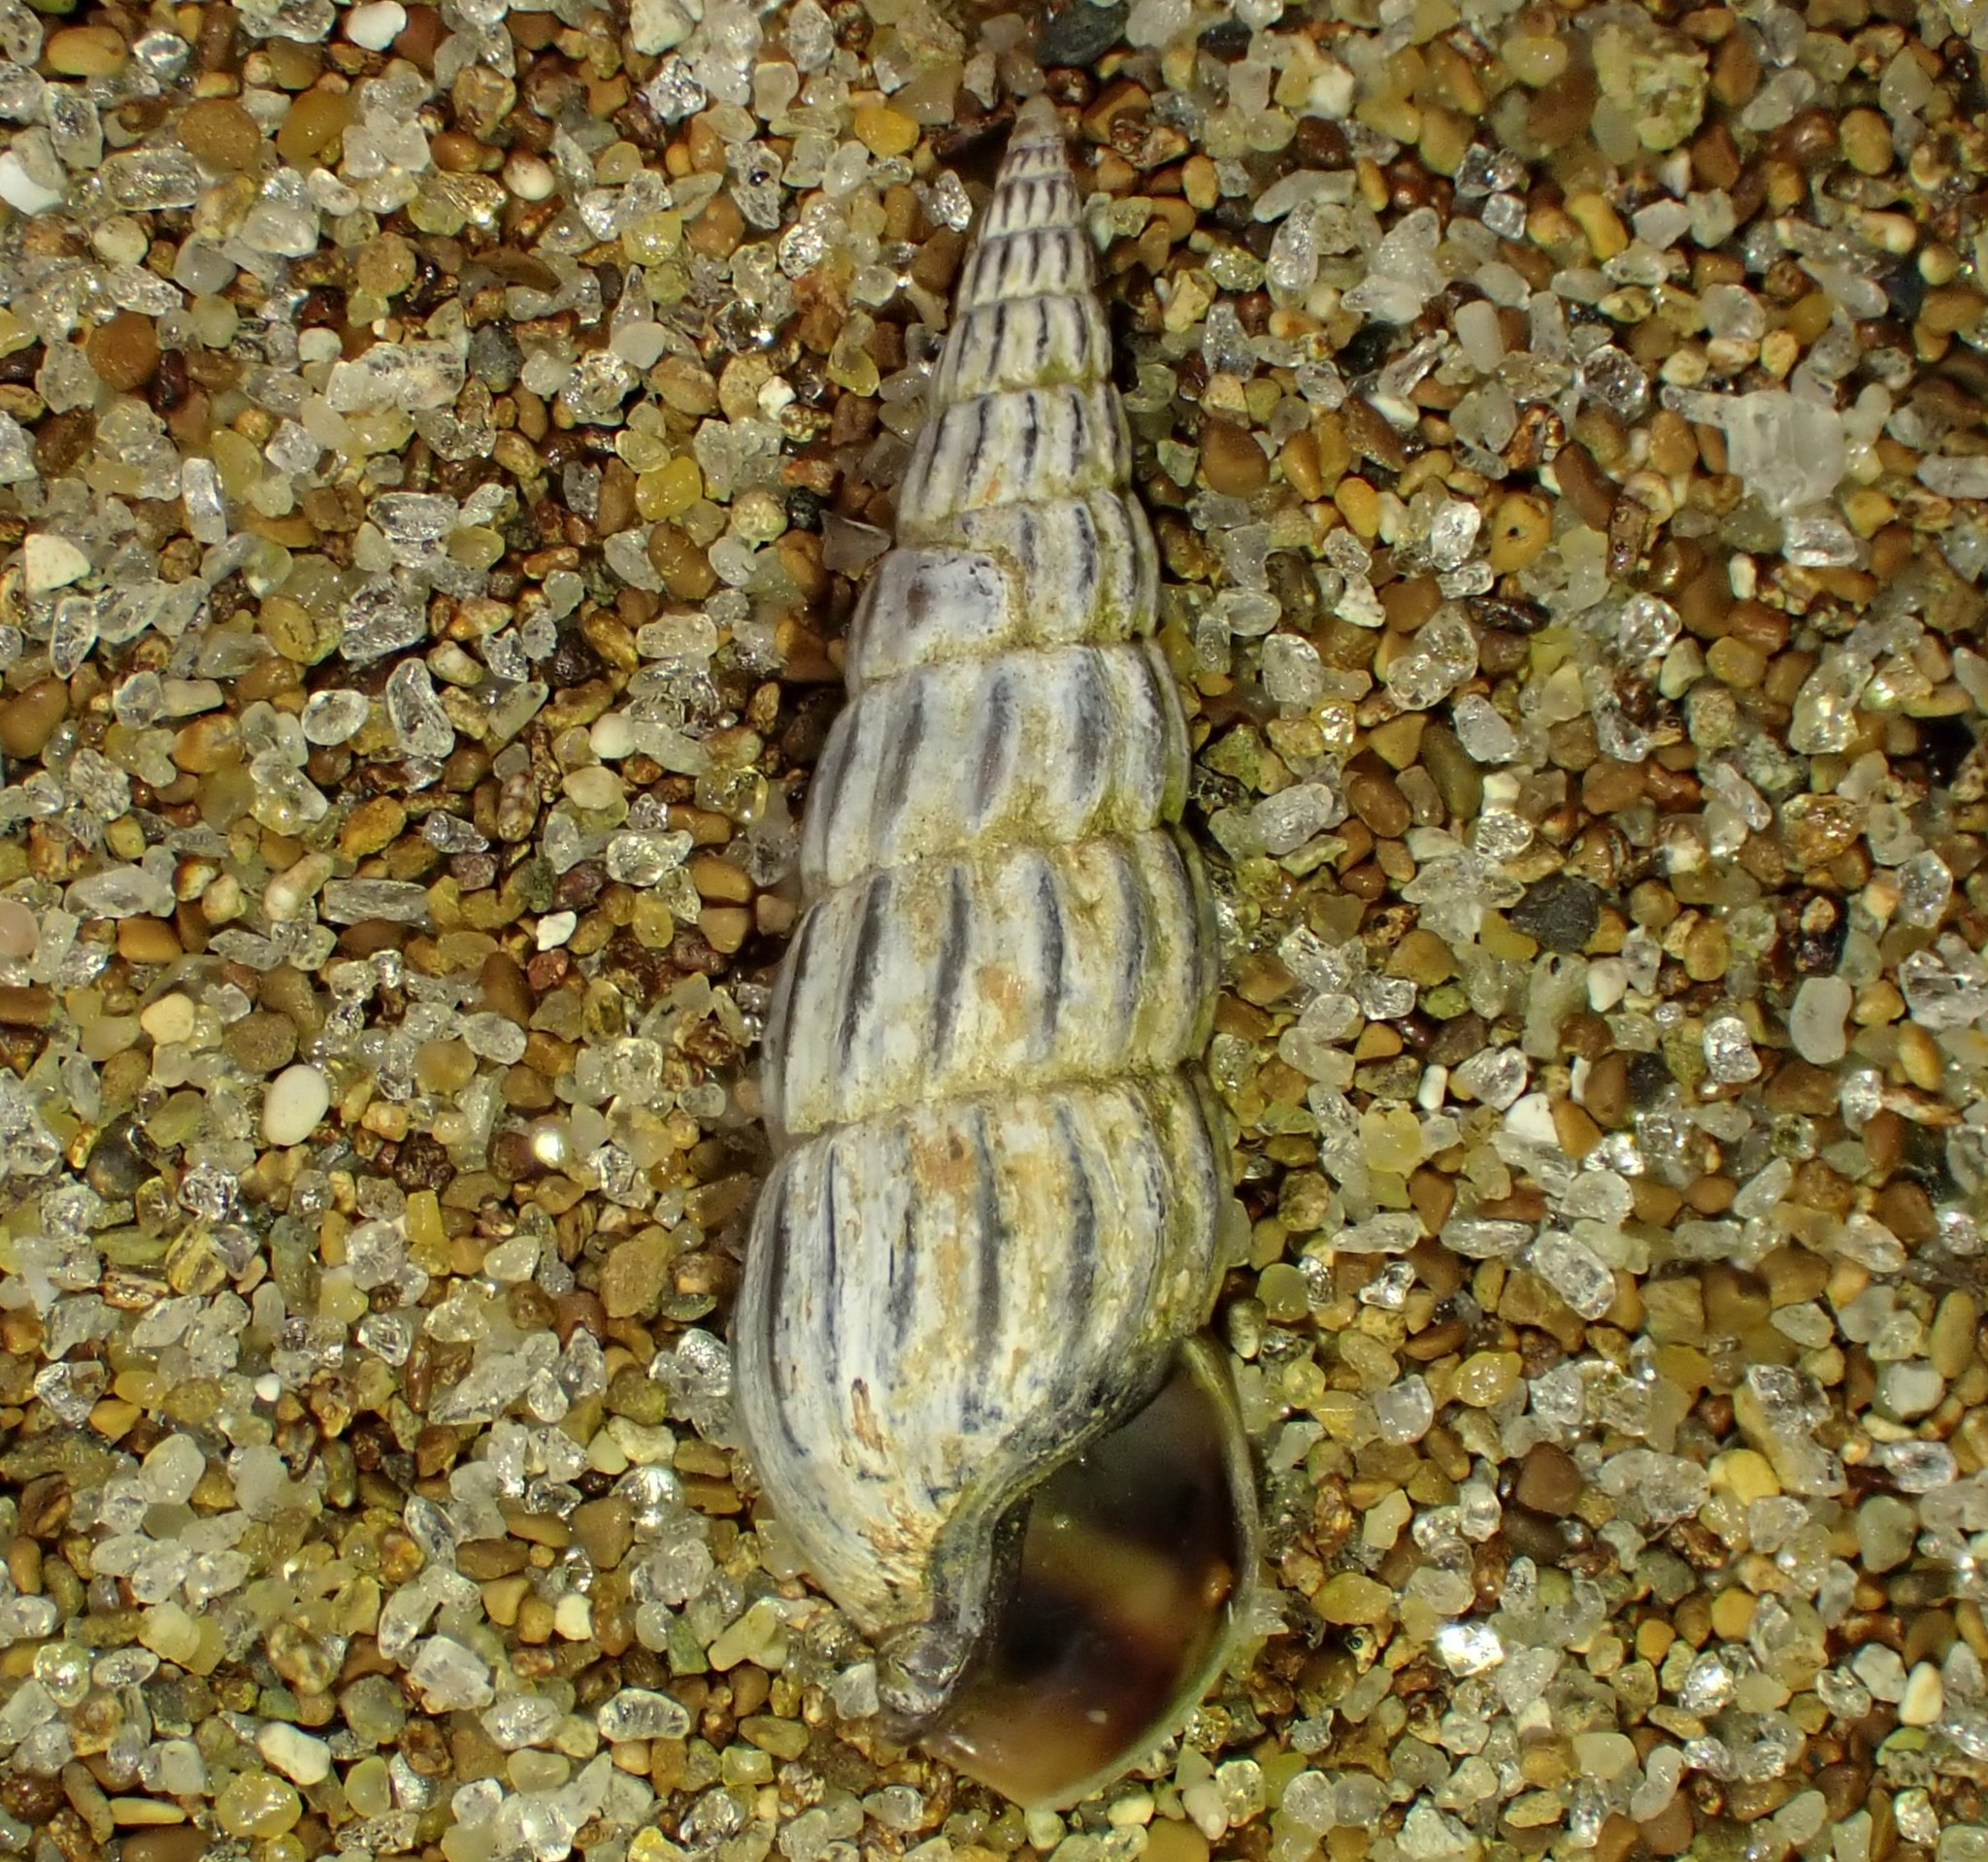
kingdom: Animalia
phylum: Mollusca
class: Gastropoda
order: Neogastropoda
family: Terebridae
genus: Duplicaria
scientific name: Duplicaria tristis
